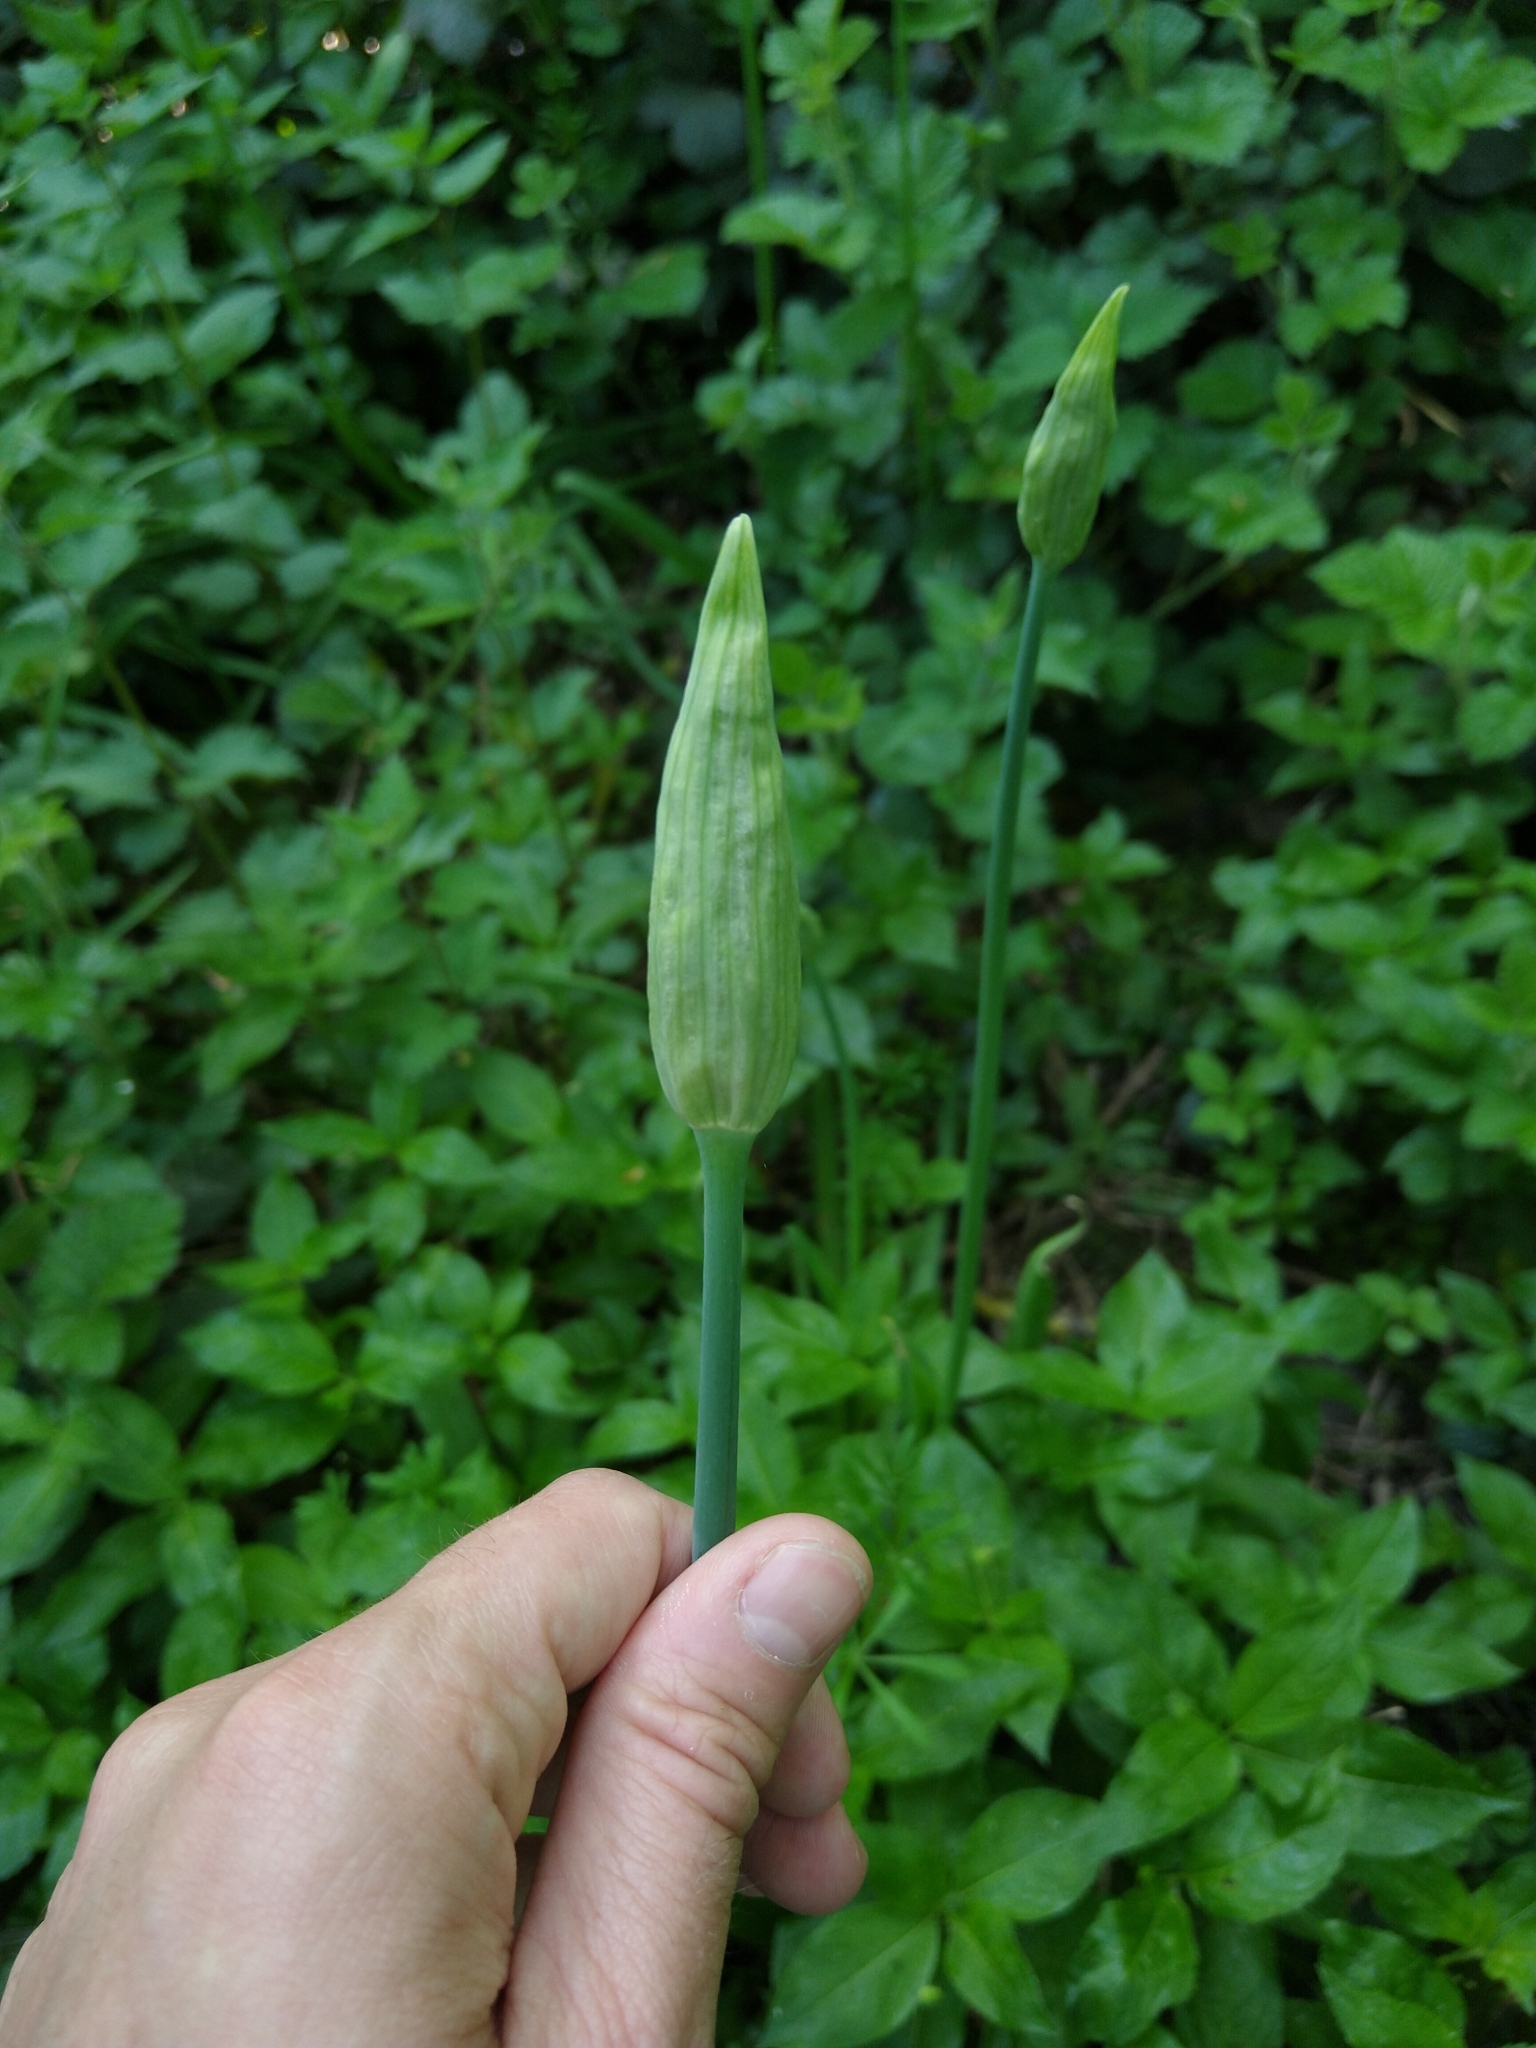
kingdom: Plantae
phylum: Tracheophyta
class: Liliopsida
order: Asparagales
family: Amaryllidaceae
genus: Allium
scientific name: Allium siculum
